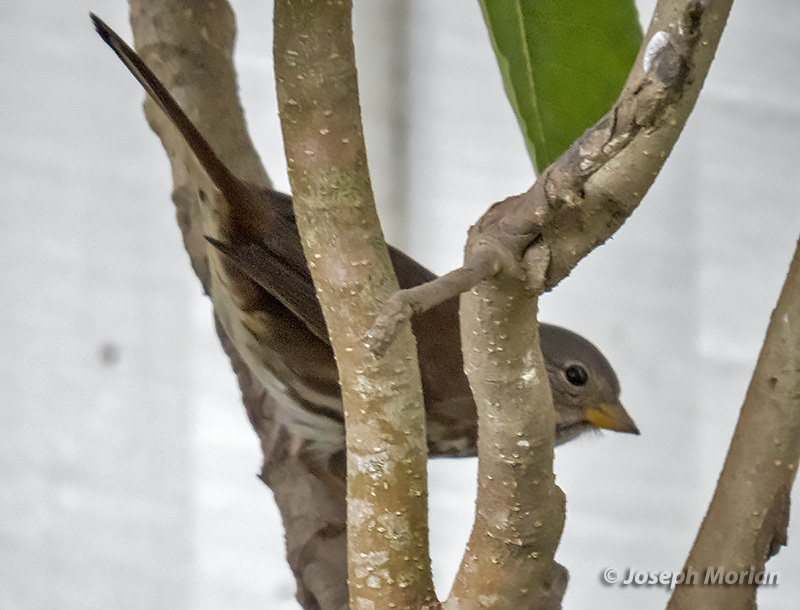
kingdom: Animalia
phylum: Chordata
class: Aves
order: Passeriformes
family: Passerellidae
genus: Passerella
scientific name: Passerella iliaca
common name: Fox sparrow
